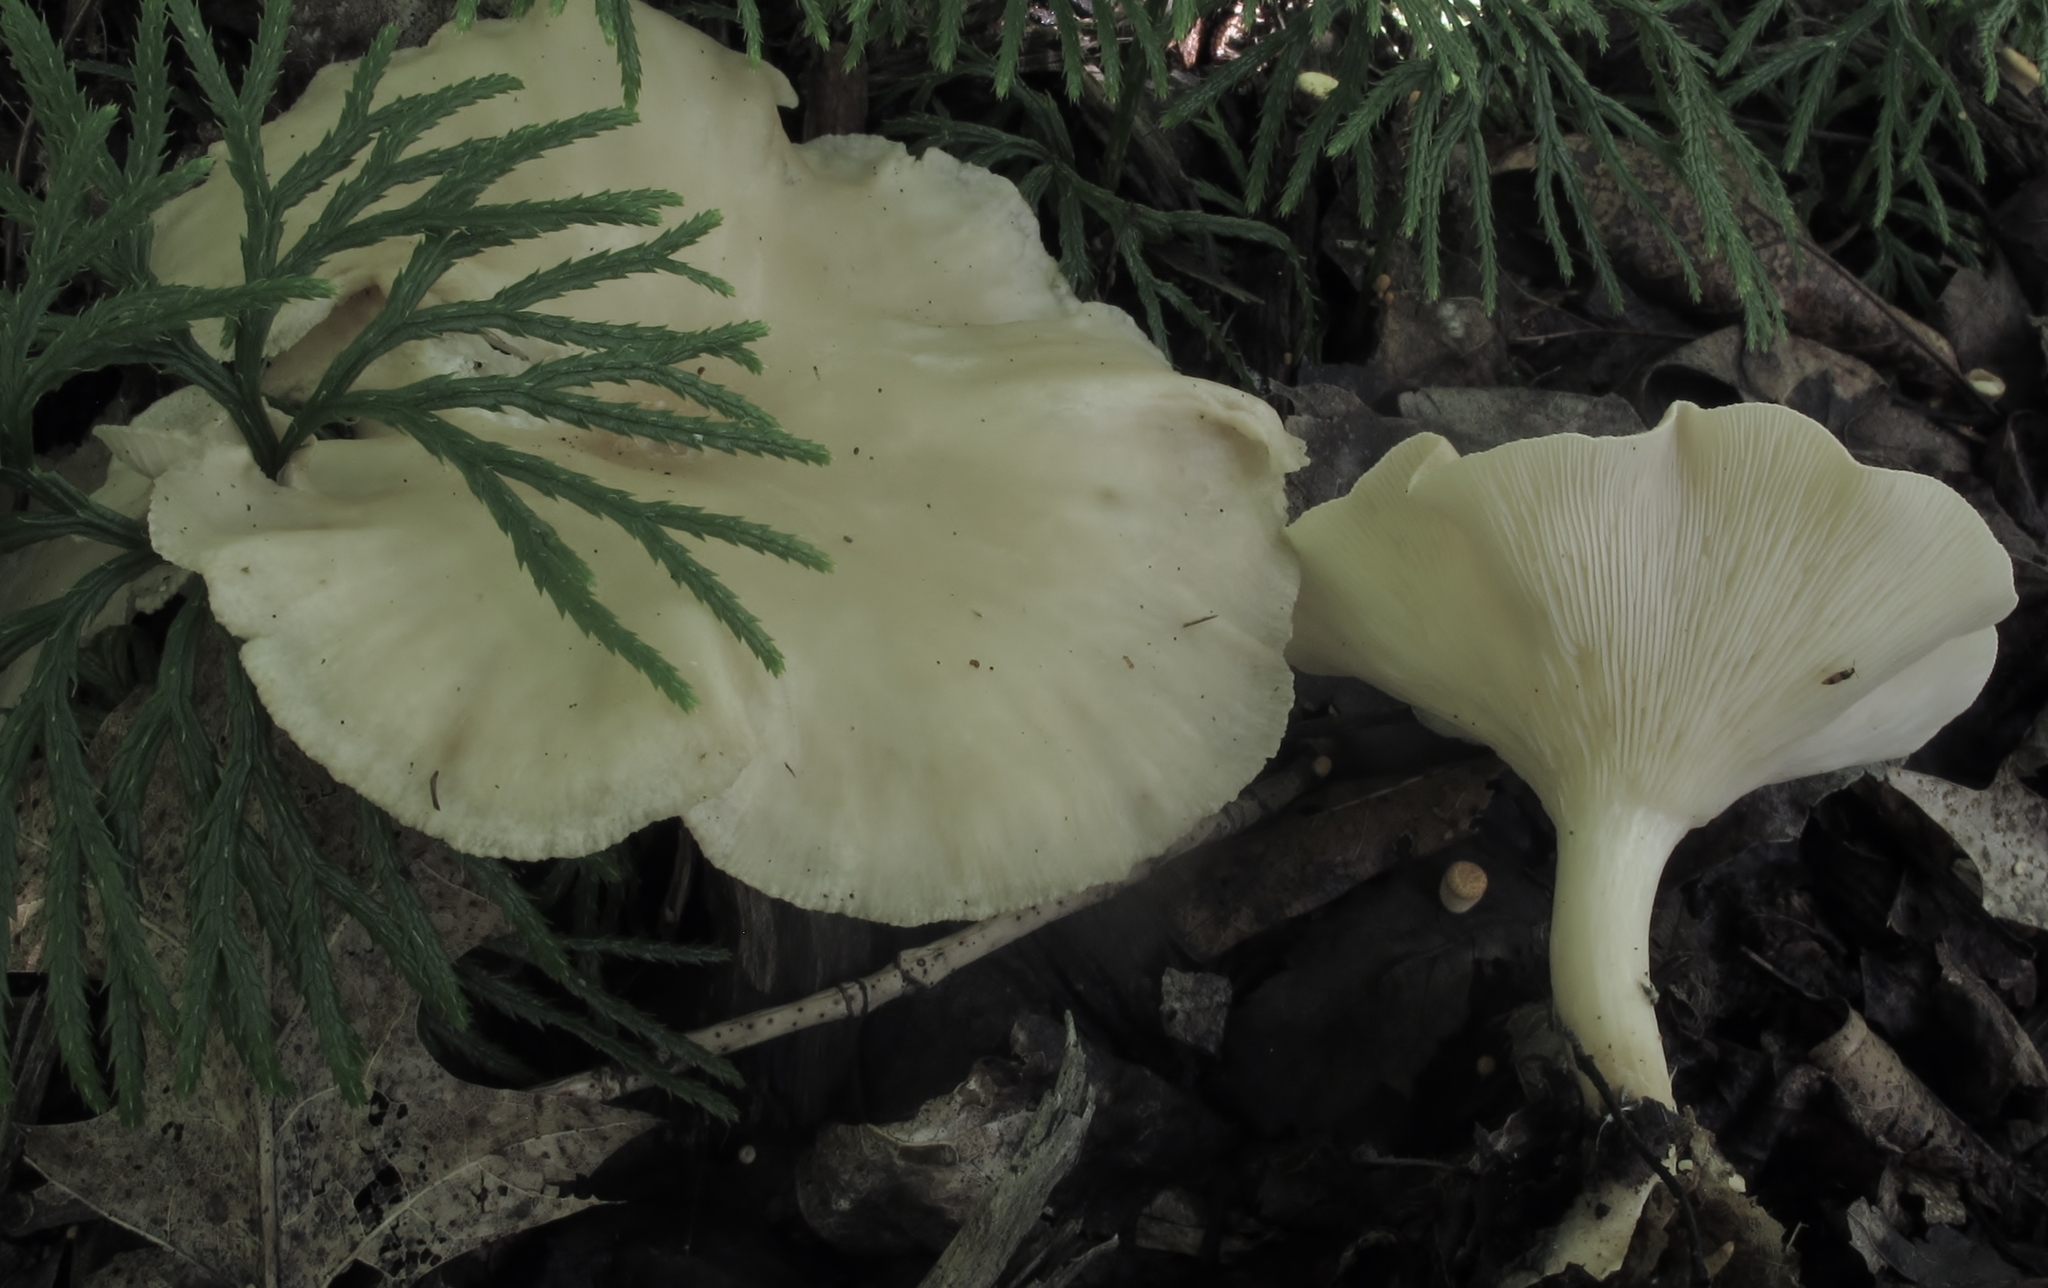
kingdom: Fungi
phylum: Basidiomycota
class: Agaricomycetes
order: Agaricales
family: Tricholomataceae
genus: Infundibulicybe
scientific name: Infundibulicybe gibba
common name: Common funnel
